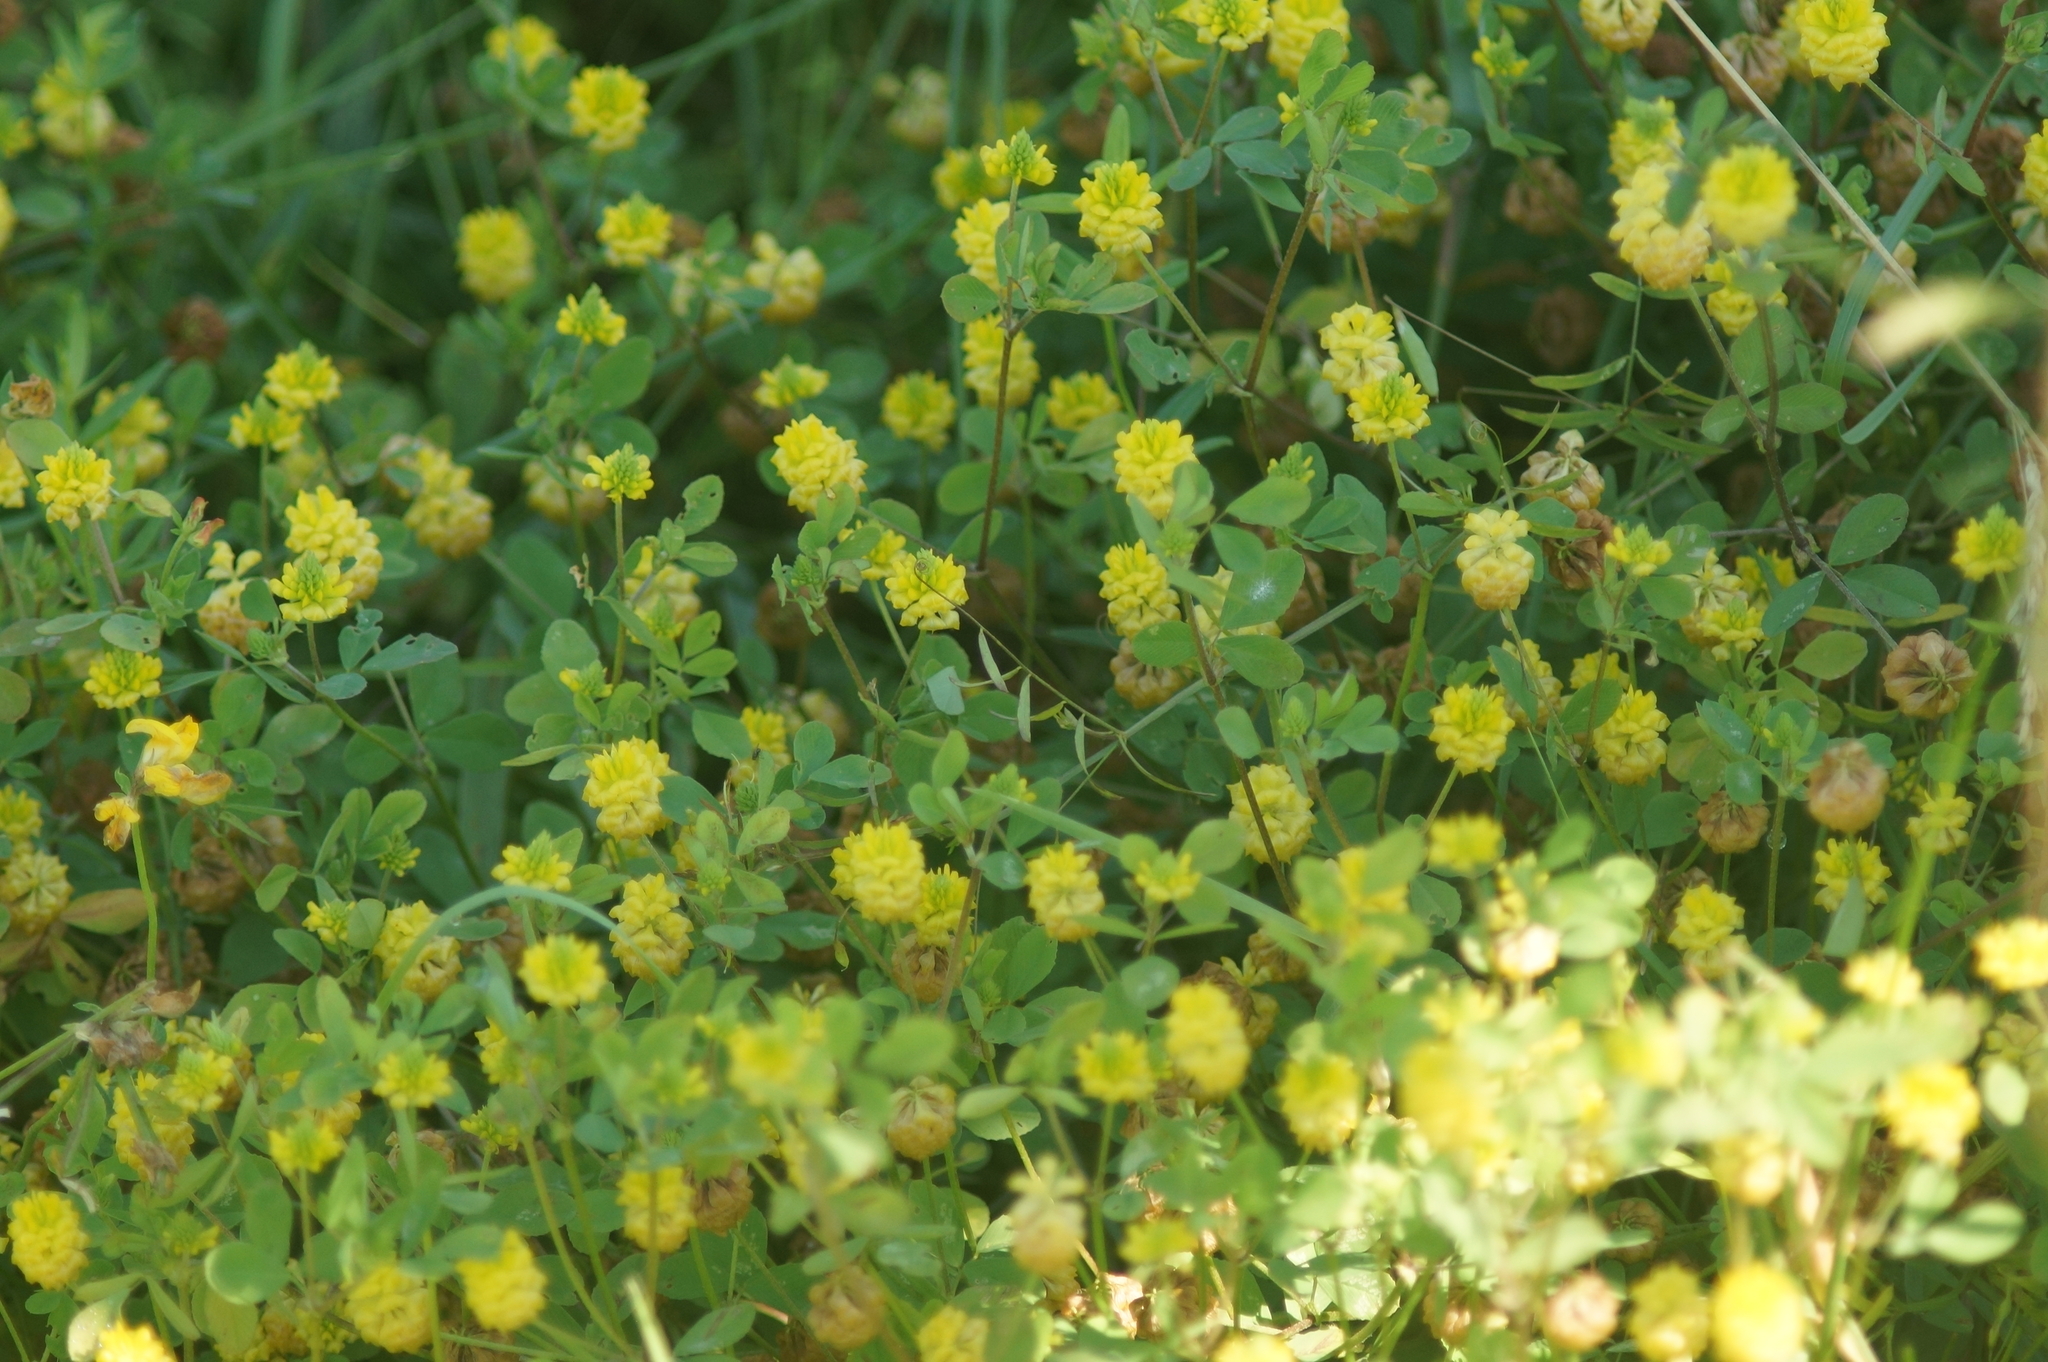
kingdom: Plantae
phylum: Tracheophyta
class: Magnoliopsida
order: Fabales
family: Fabaceae
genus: Trifolium
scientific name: Trifolium campestre
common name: Field clover
